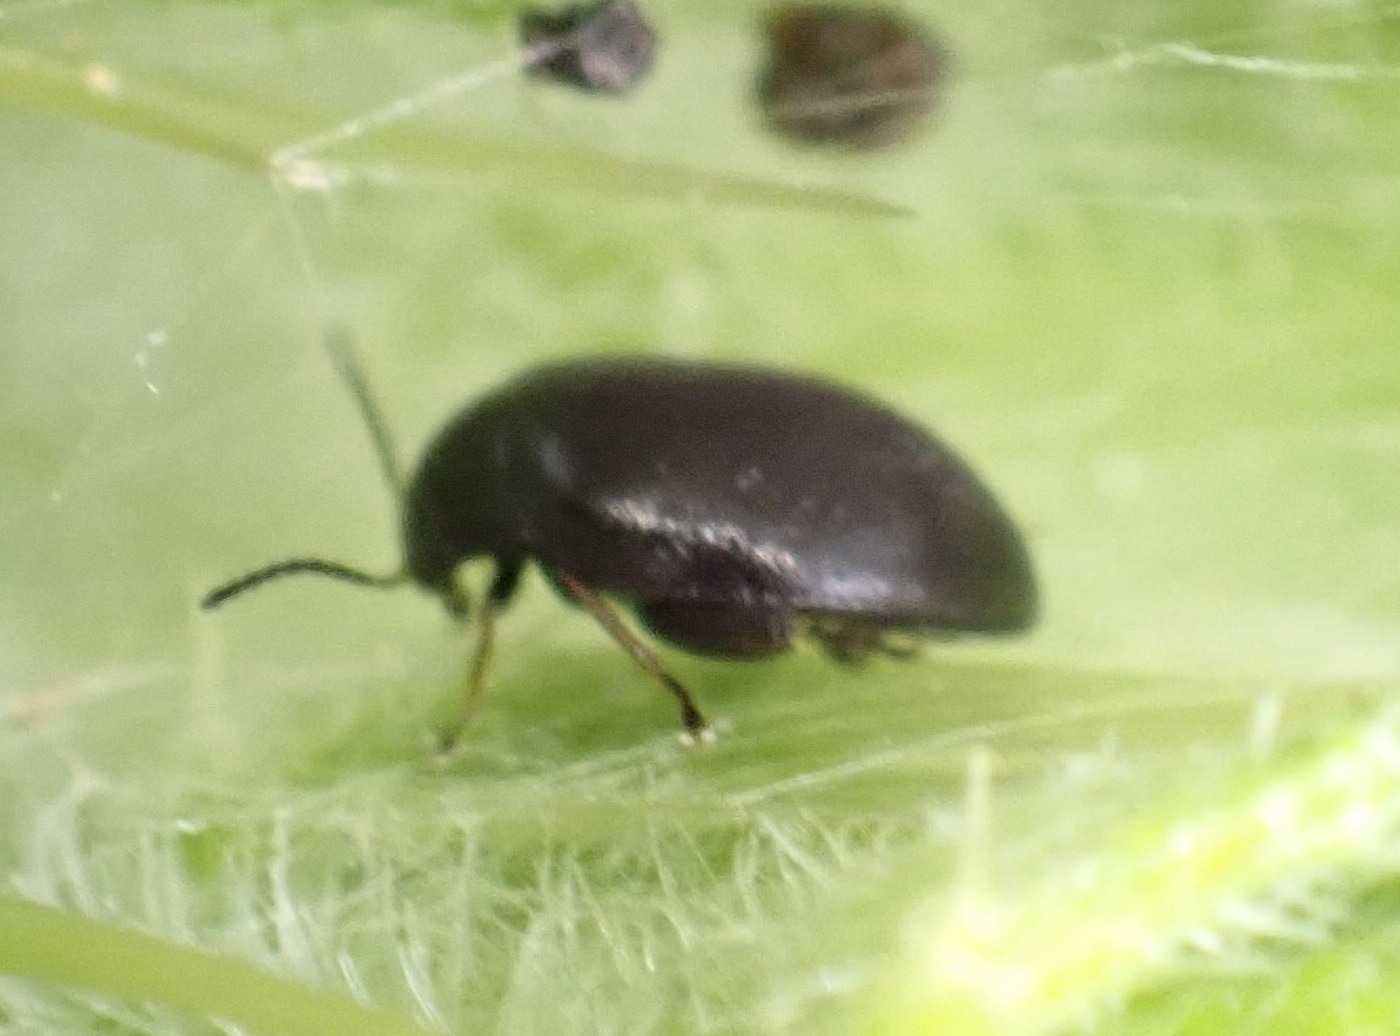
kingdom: Animalia
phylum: Arthropoda
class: Insecta
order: Coleoptera
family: Scirtidae
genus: Scirtes
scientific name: Scirtes hemisphaericus
